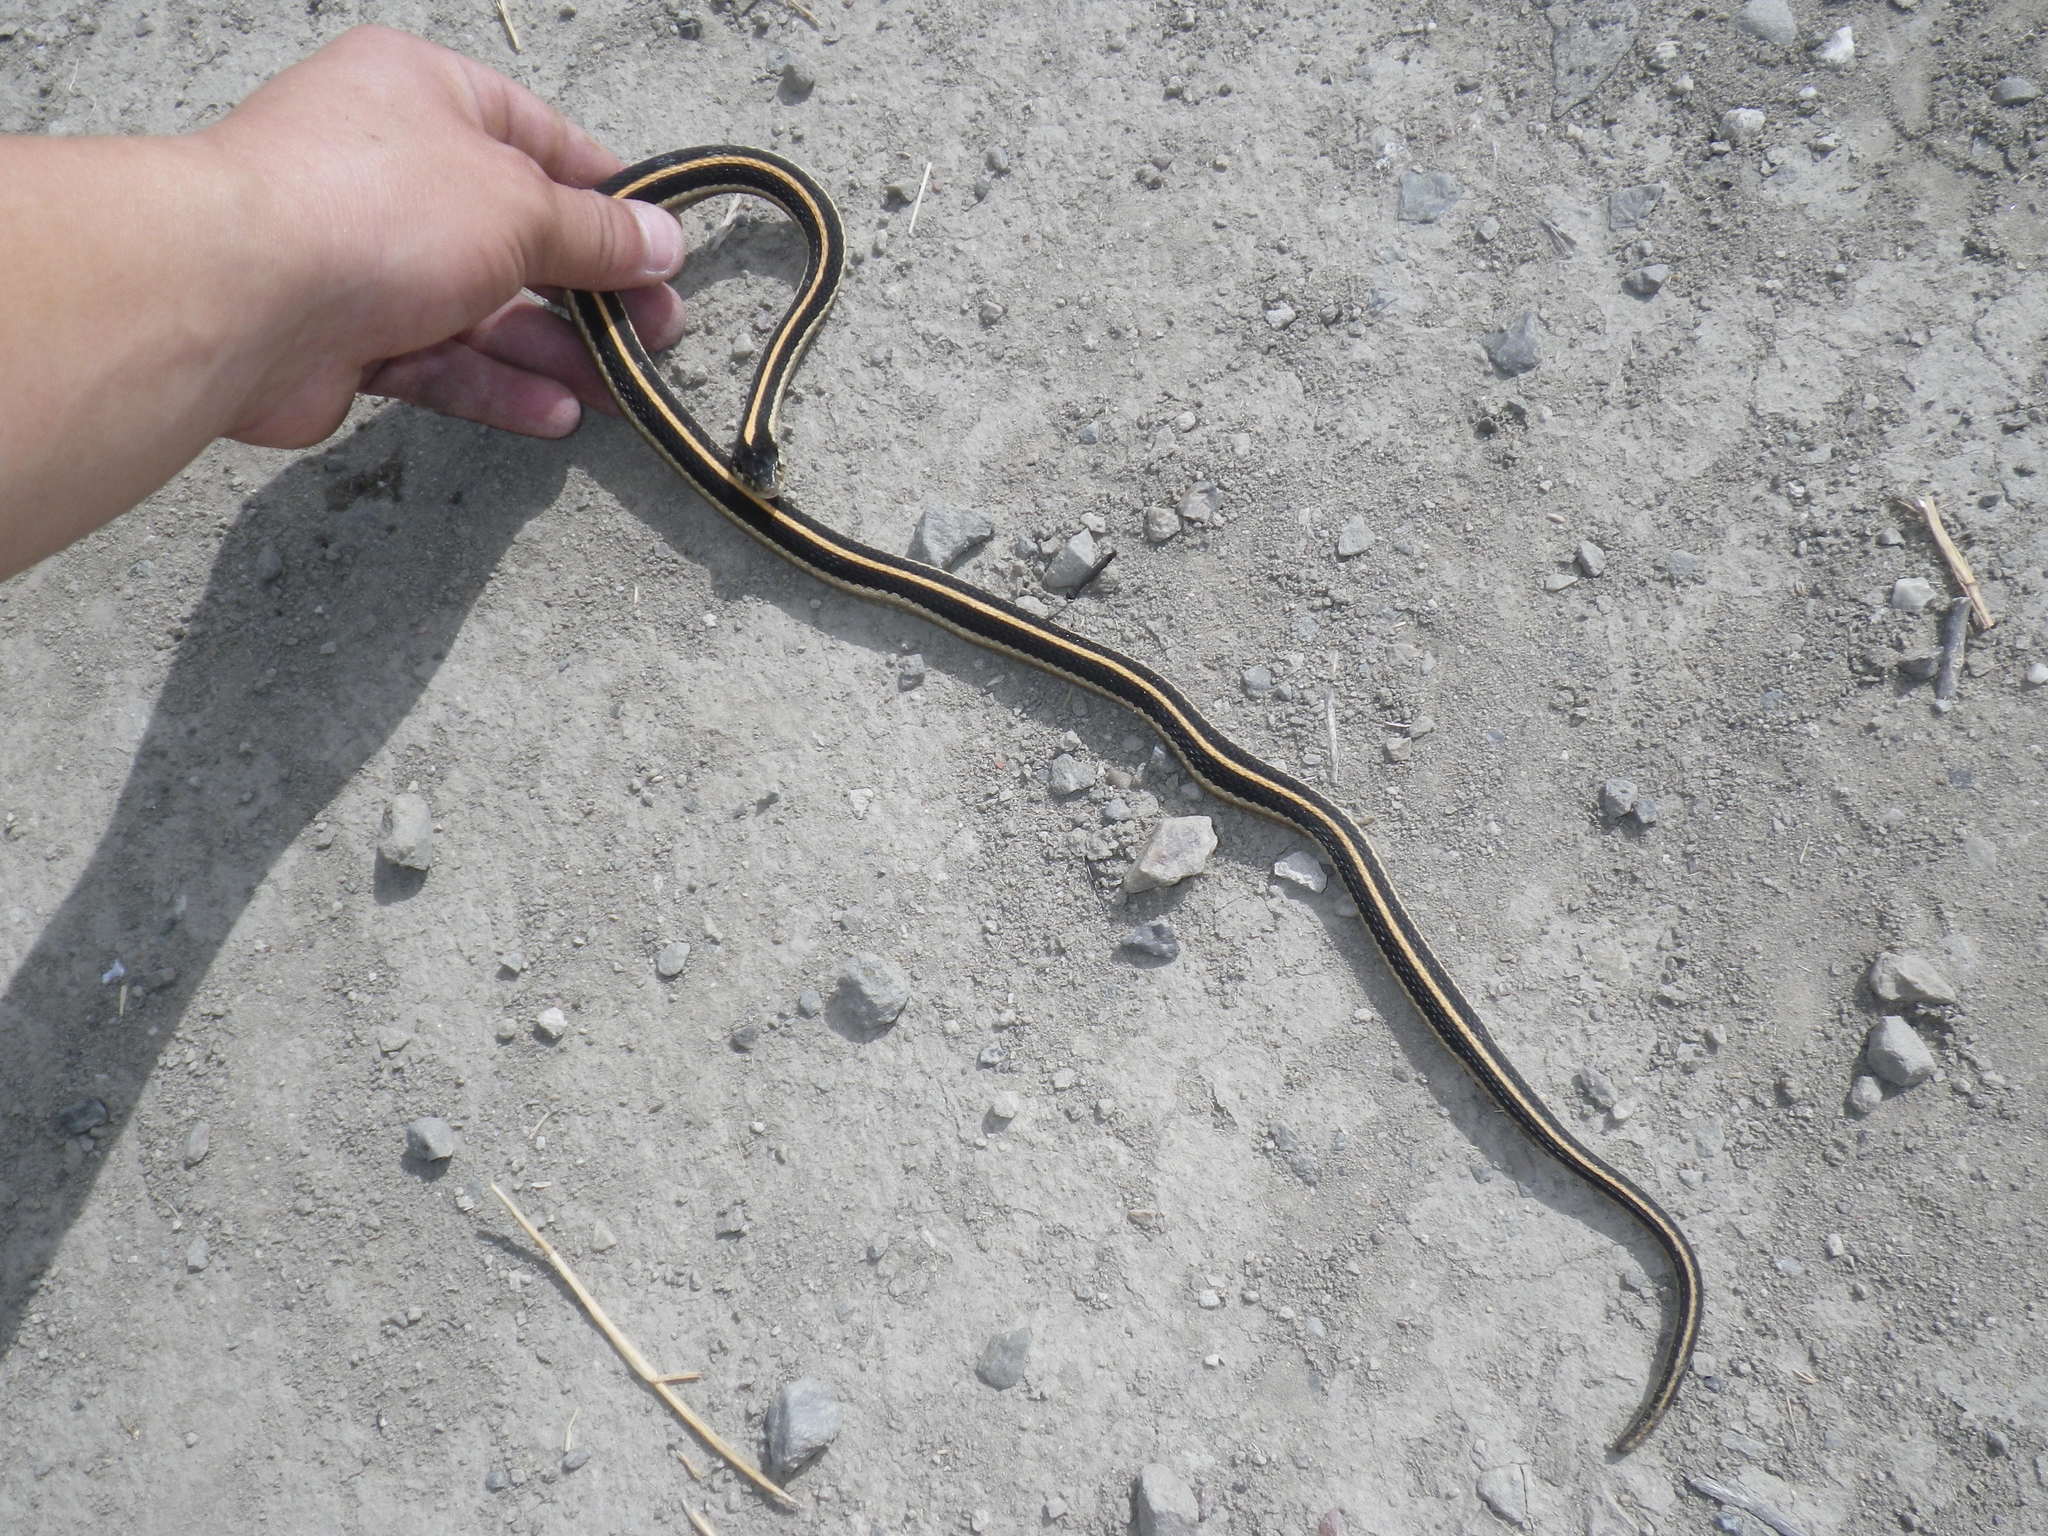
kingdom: Animalia
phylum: Chordata
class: Squamata
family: Colubridae
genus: Thamnophis
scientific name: Thamnophis elegans
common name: Western terrestrial garter snake
